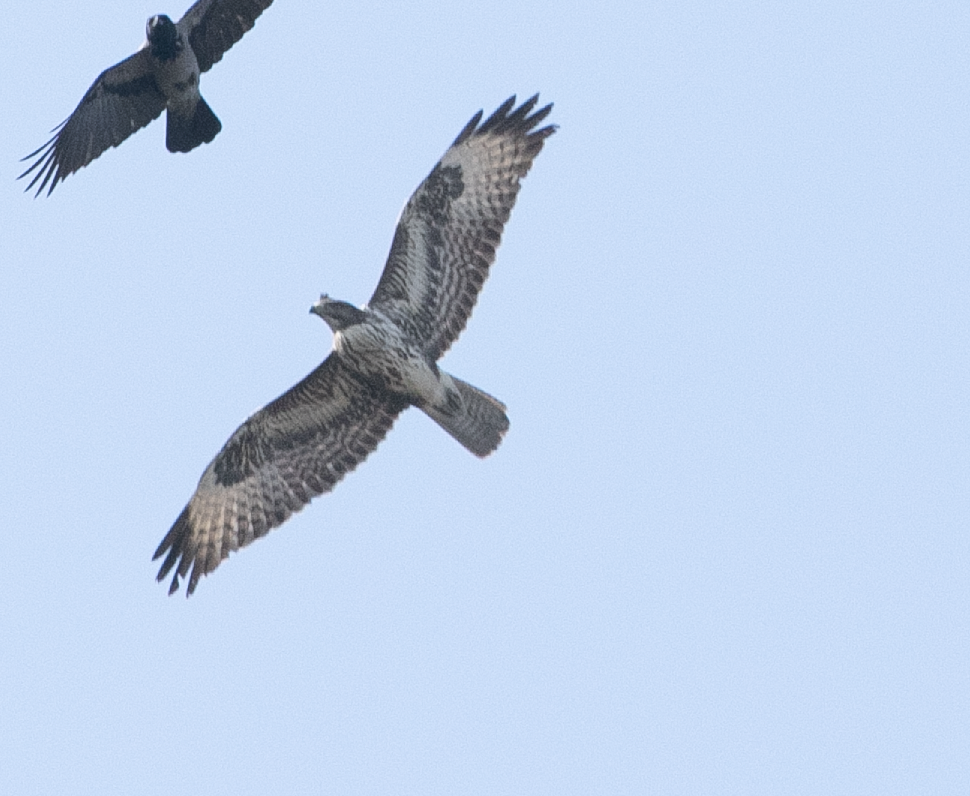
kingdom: Animalia
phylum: Chordata
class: Aves
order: Accipitriformes
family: Accipitridae
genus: Buteo
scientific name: Buteo buteo
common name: Common buzzard
